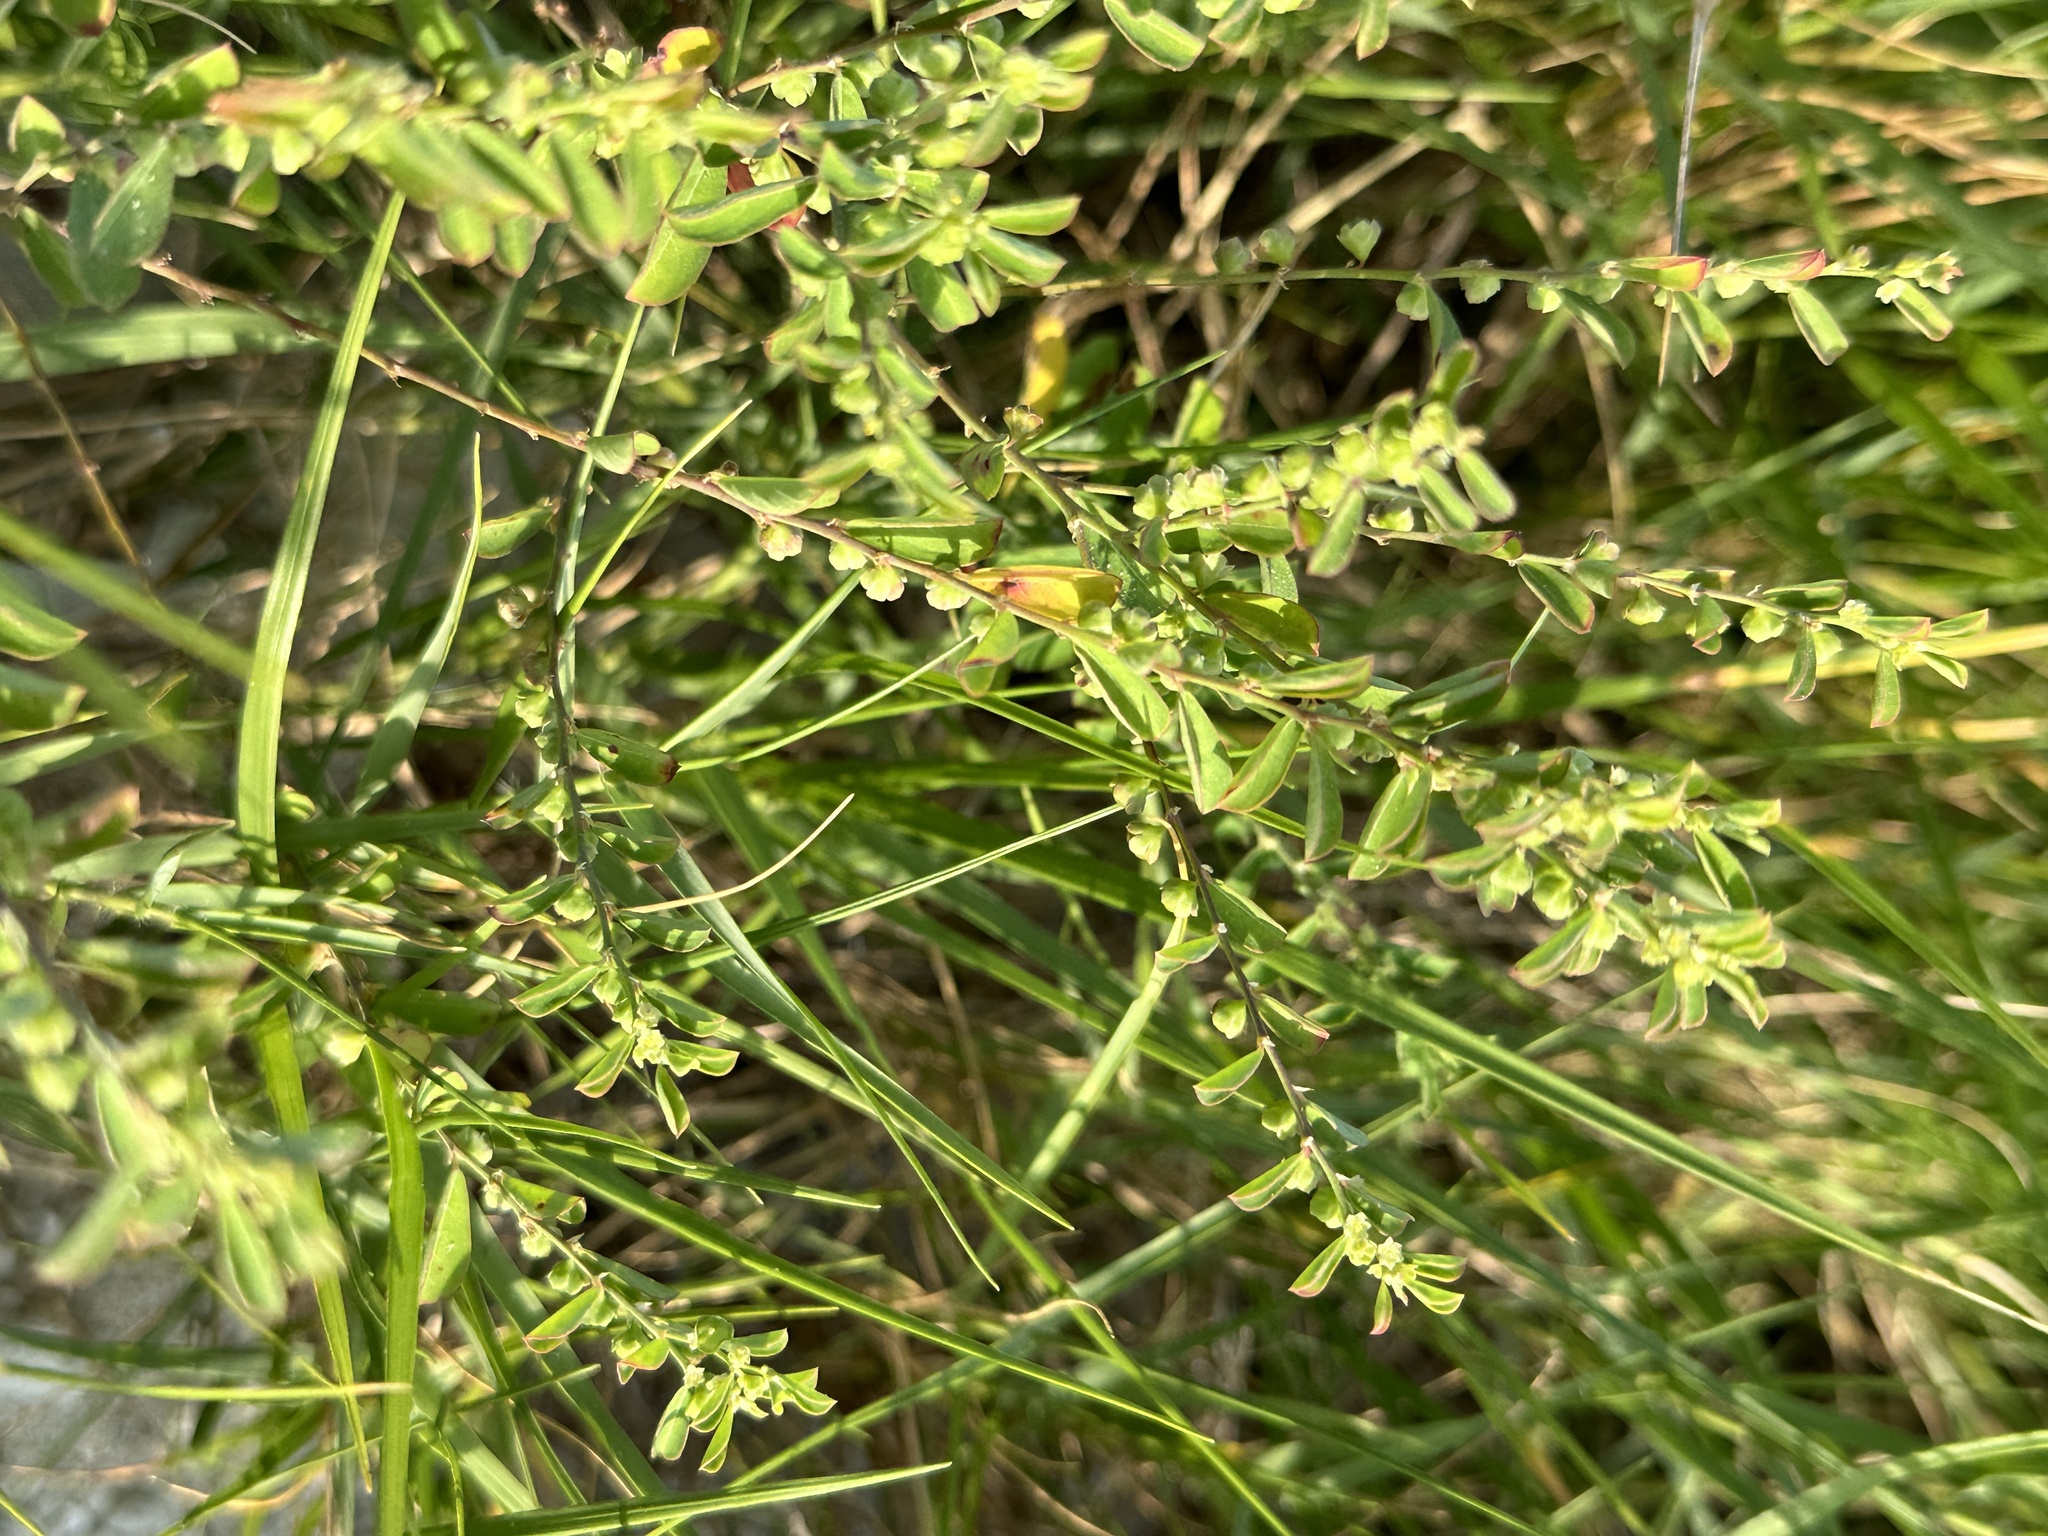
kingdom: Plantae
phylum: Tracheophyta
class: Magnoliopsida
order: Malpighiales
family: Phyllanthaceae
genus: Phyllanthus
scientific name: Phyllanthus polygonoides
